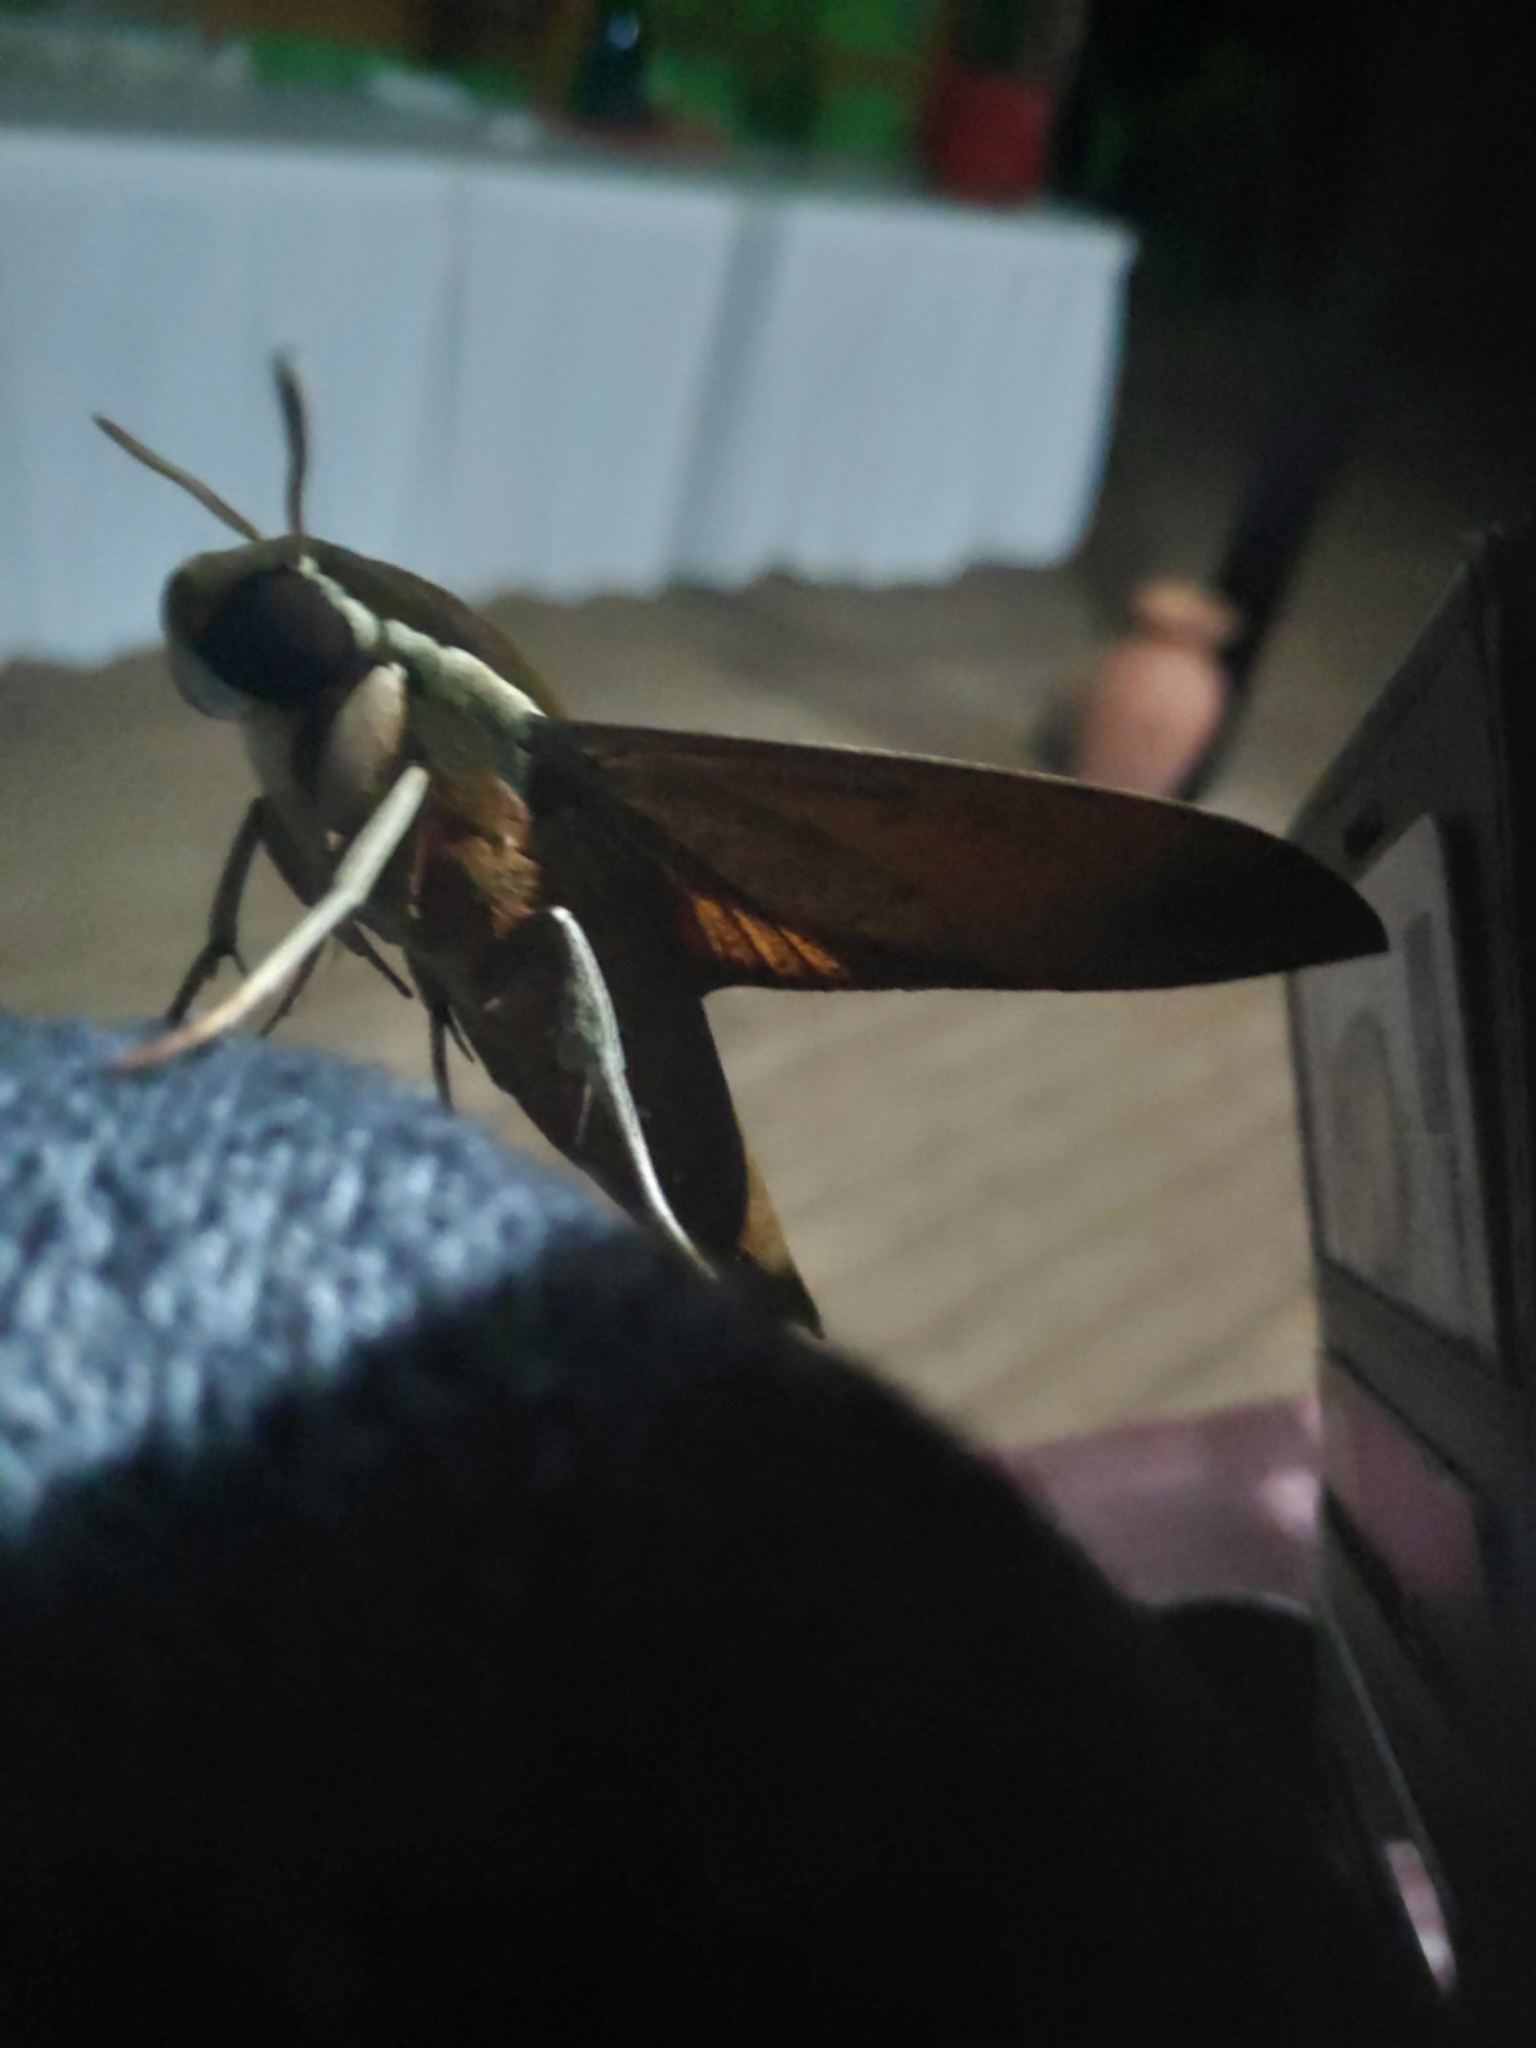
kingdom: Animalia
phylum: Arthropoda
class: Insecta
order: Lepidoptera
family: Sphingidae
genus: Gnathothlibus
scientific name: Gnathothlibus eras
